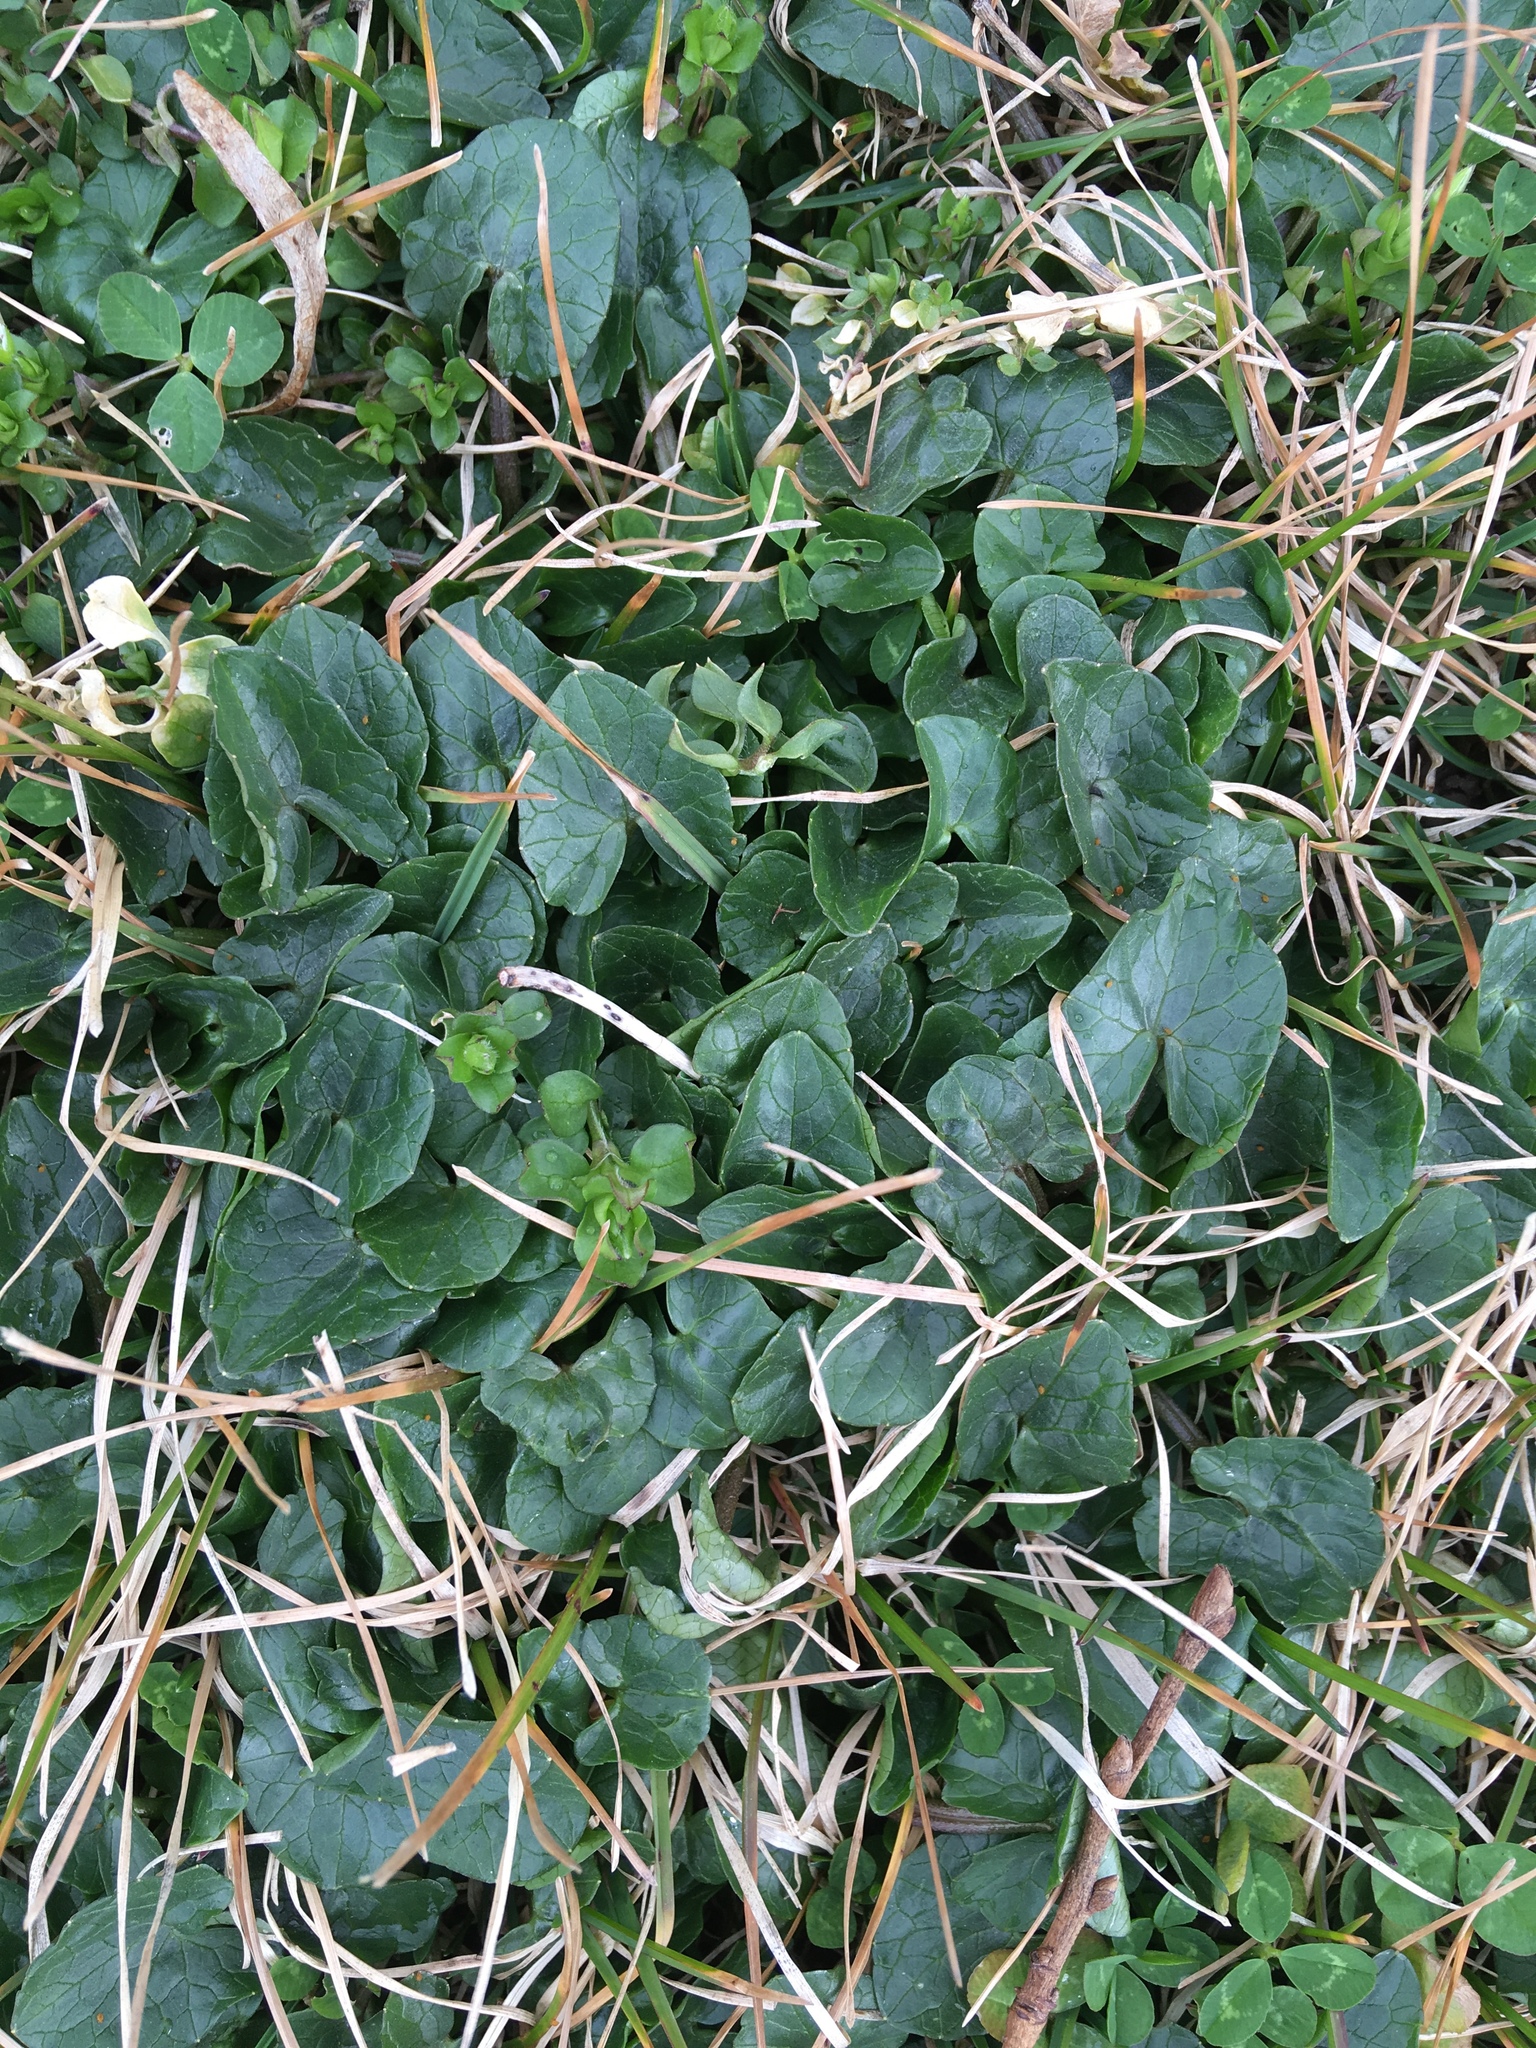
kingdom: Plantae
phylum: Tracheophyta
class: Magnoliopsida
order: Ranunculales
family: Ranunculaceae
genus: Ficaria
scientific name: Ficaria verna
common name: Lesser celandine
